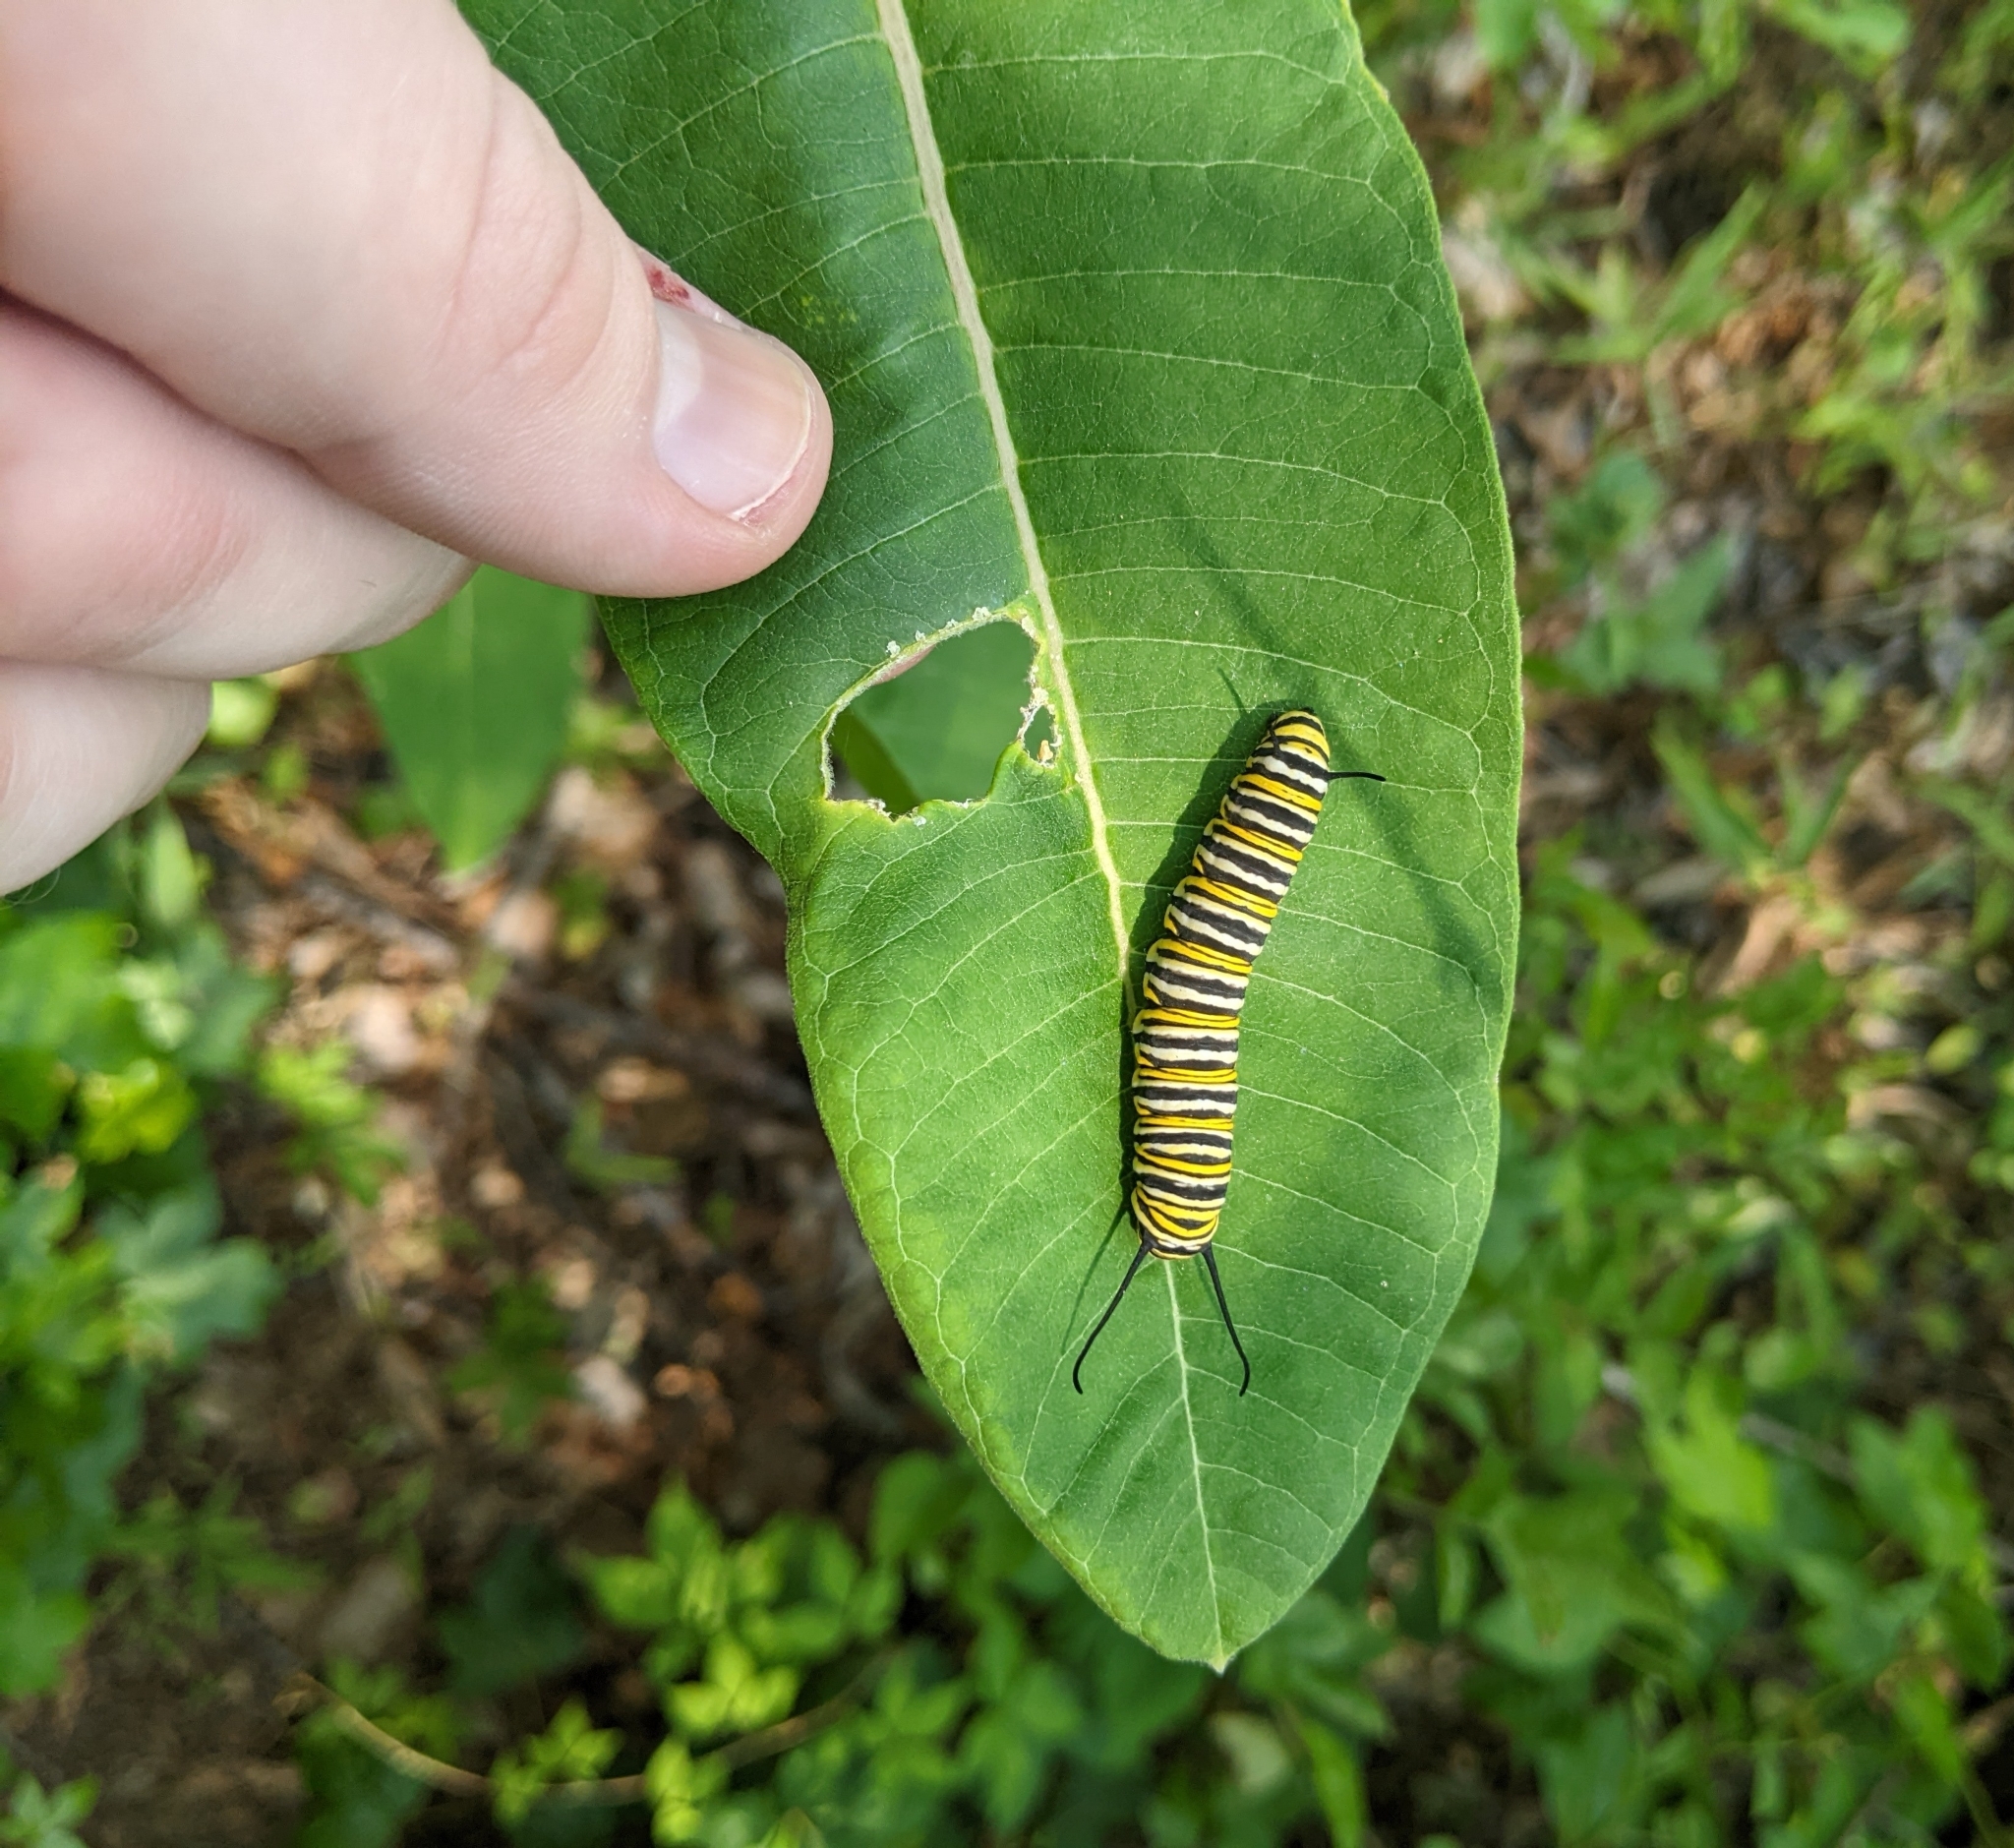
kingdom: Animalia
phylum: Arthropoda
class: Insecta
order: Lepidoptera
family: Nymphalidae
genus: Danaus
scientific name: Danaus plexippus
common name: Monarch
